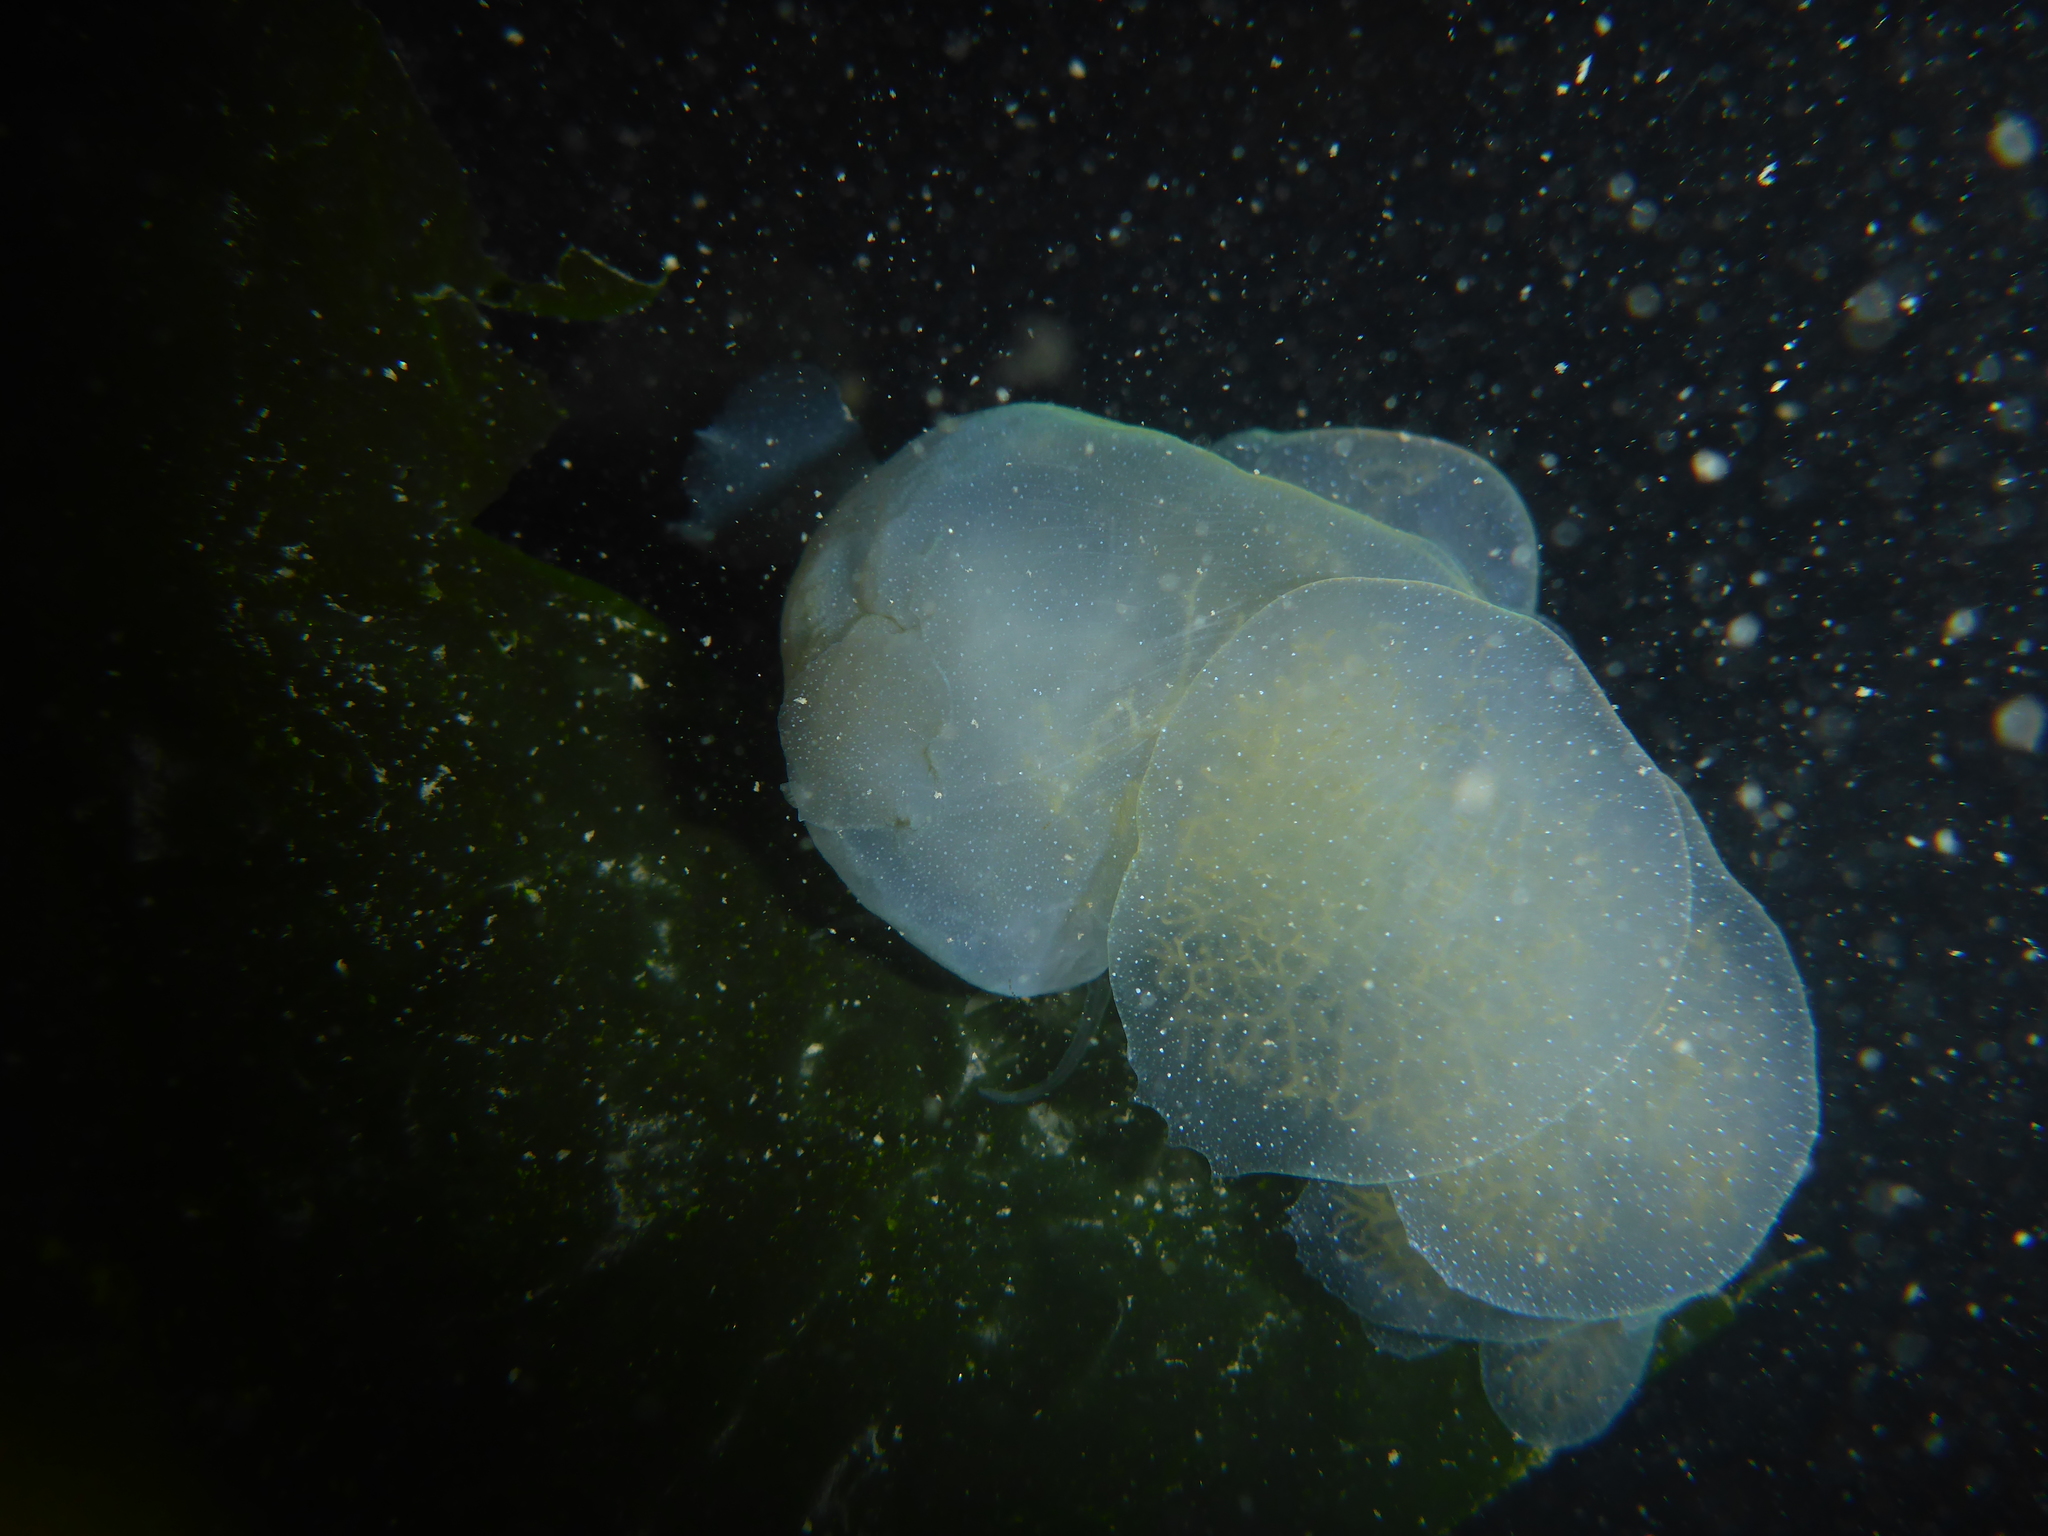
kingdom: Animalia
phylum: Mollusca
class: Gastropoda
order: Nudibranchia
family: Tethydidae
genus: Melibe
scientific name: Melibe leonina
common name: Lion nudibranch
